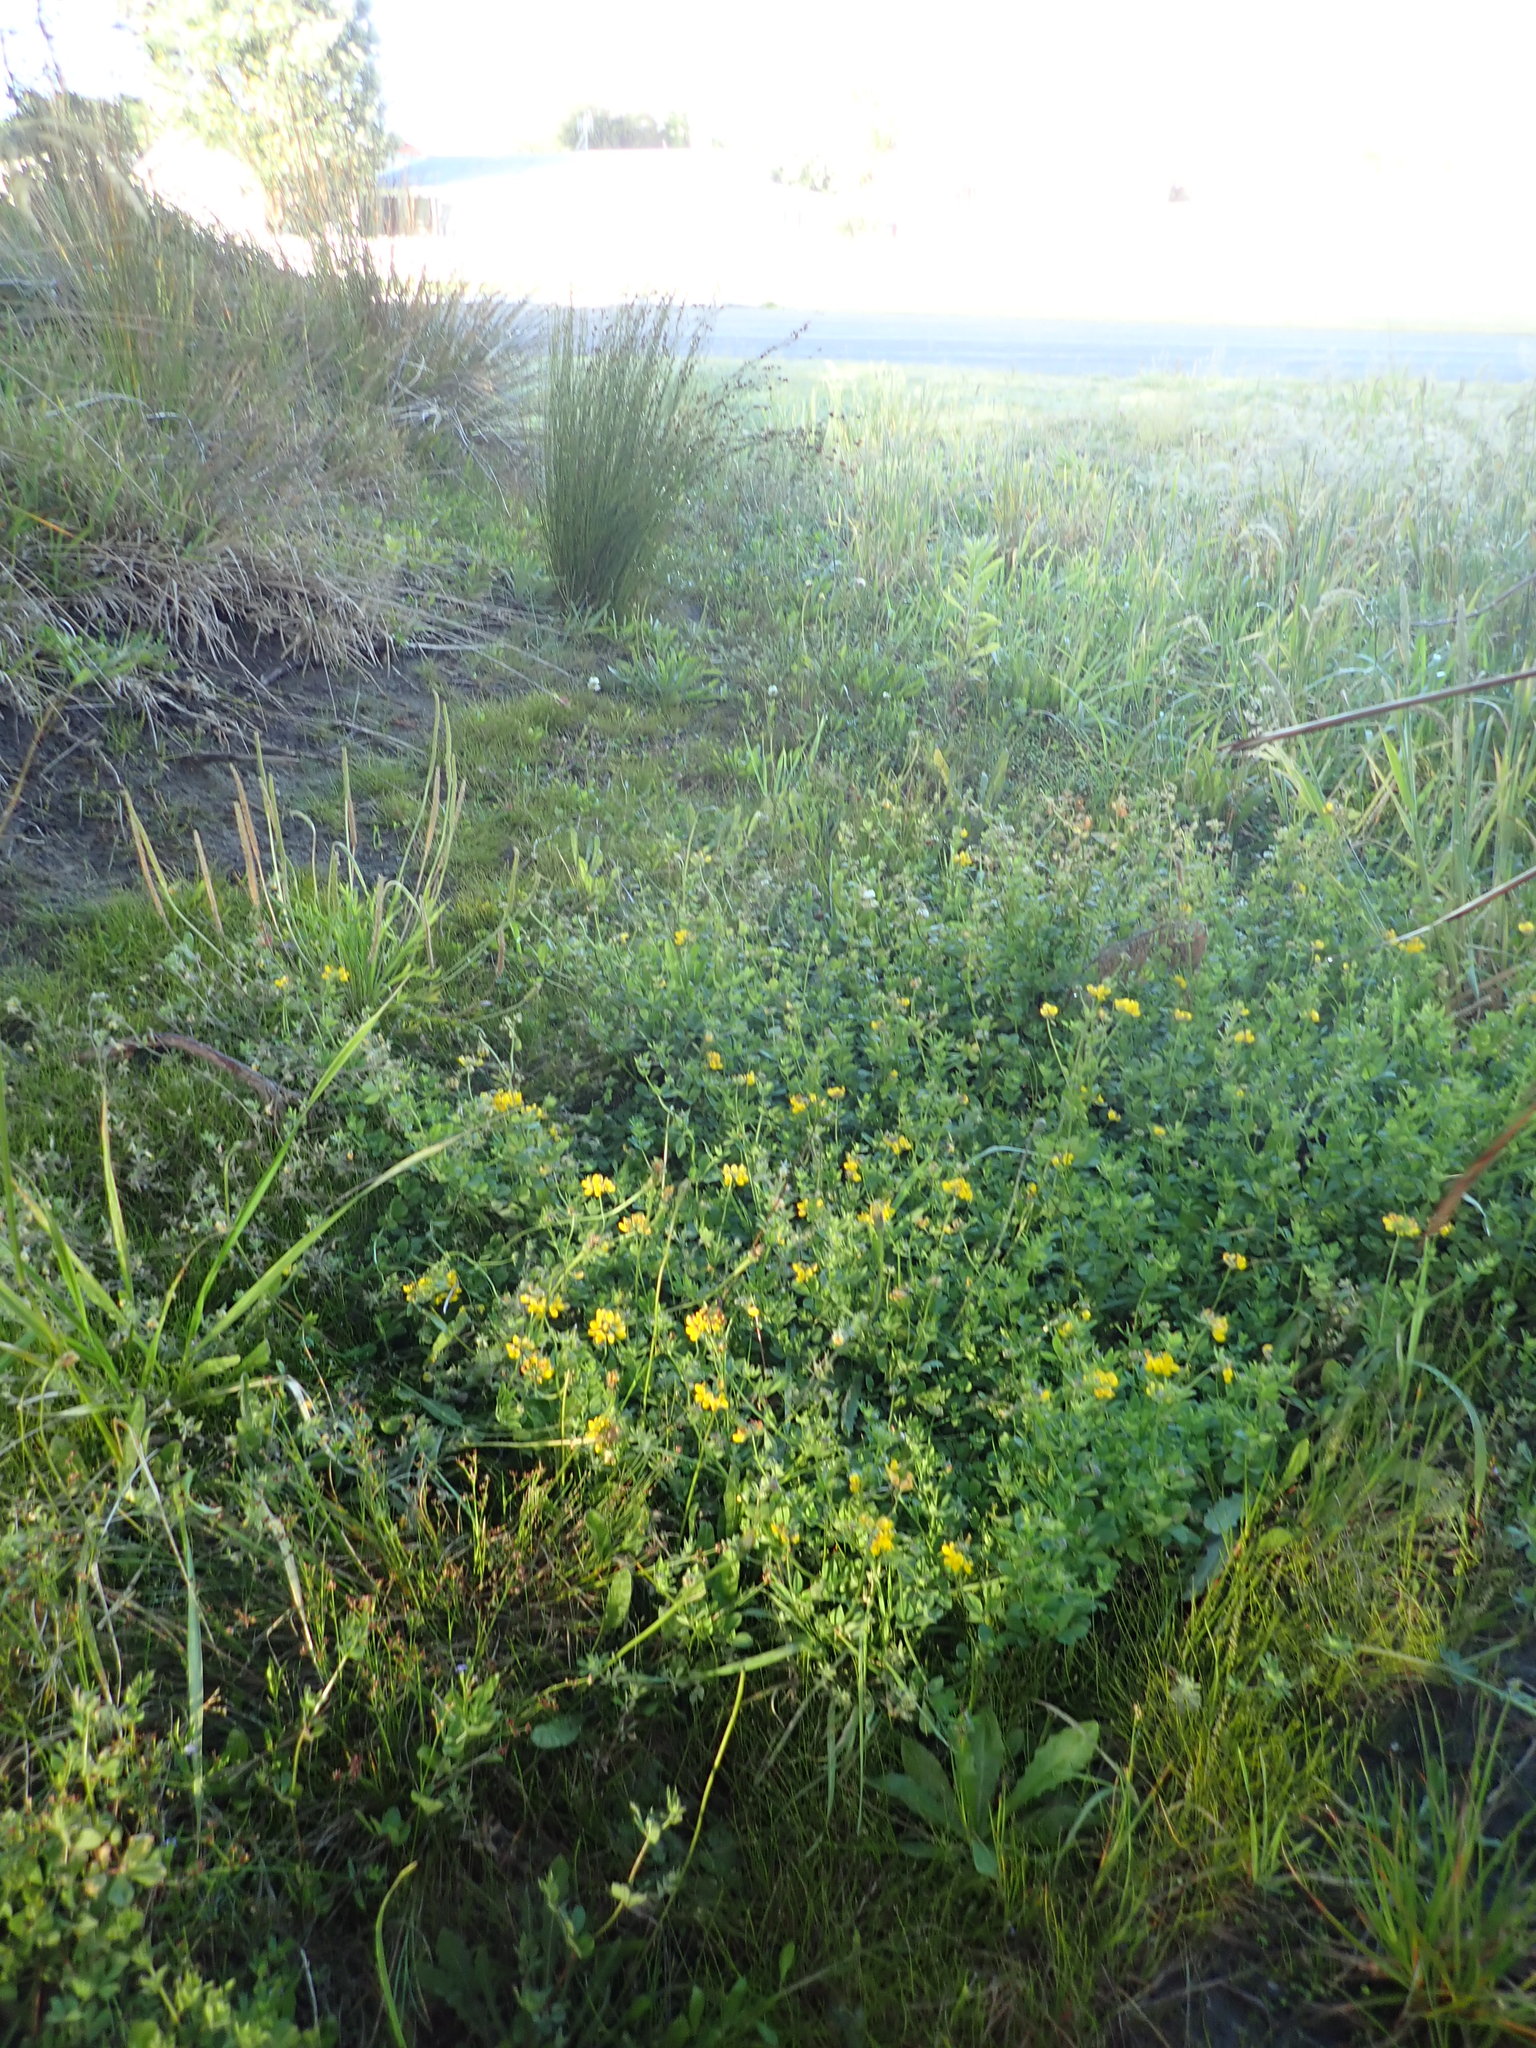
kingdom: Plantae
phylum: Tracheophyta
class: Magnoliopsida
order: Fabales
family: Fabaceae
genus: Lotus
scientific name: Lotus pedunculatus
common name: Greater birdsfoot-trefoil
